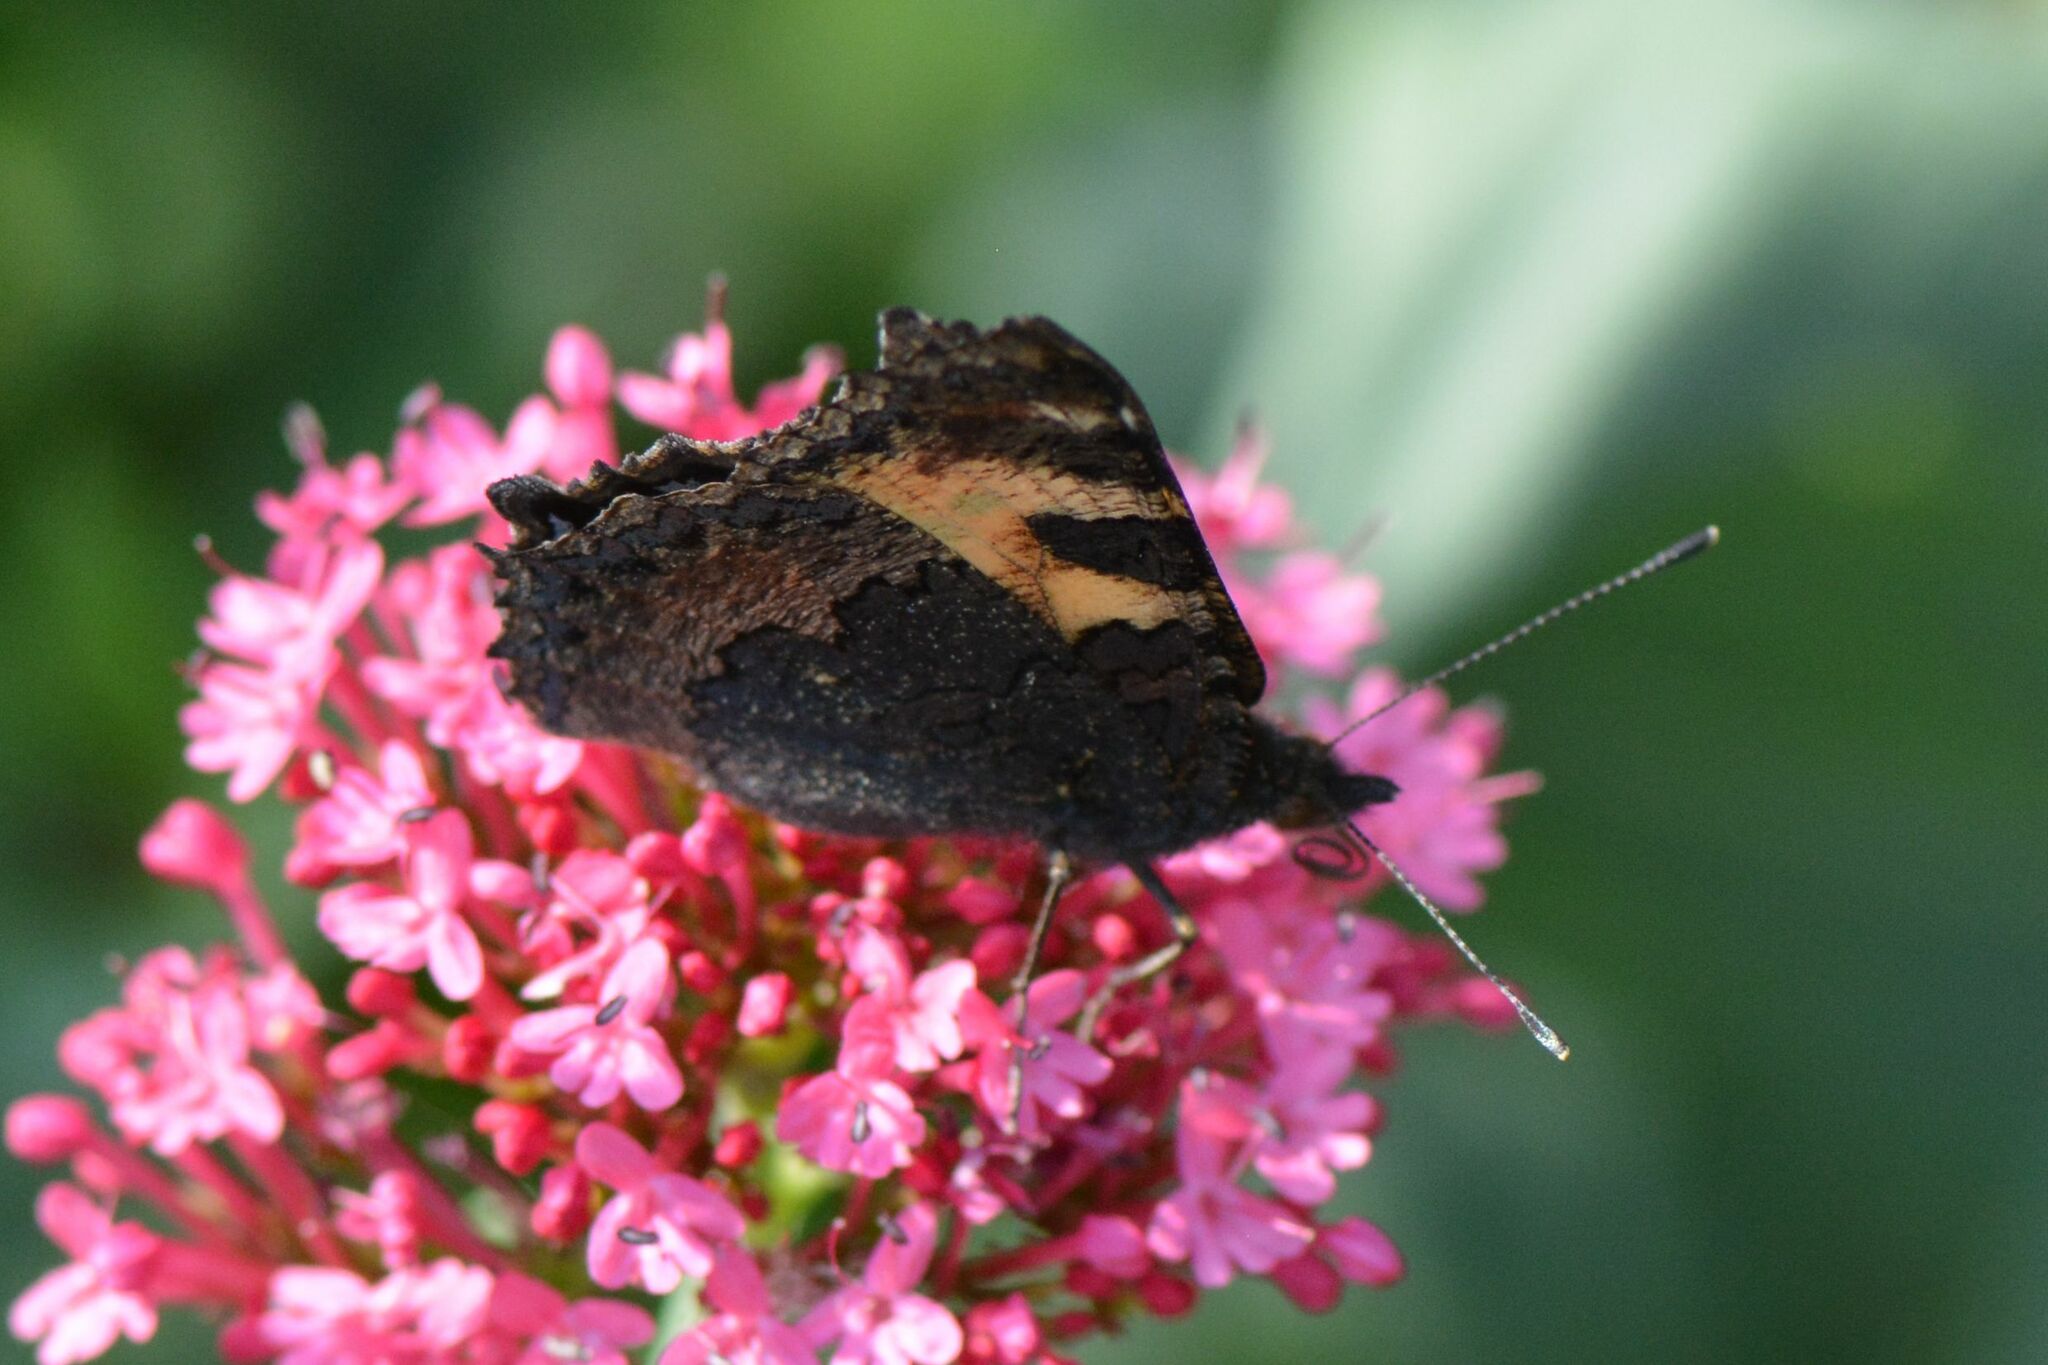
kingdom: Animalia
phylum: Arthropoda
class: Insecta
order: Lepidoptera
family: Nymphalidae
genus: Aglais
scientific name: Aglais urticae
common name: Small tortoiseshell
